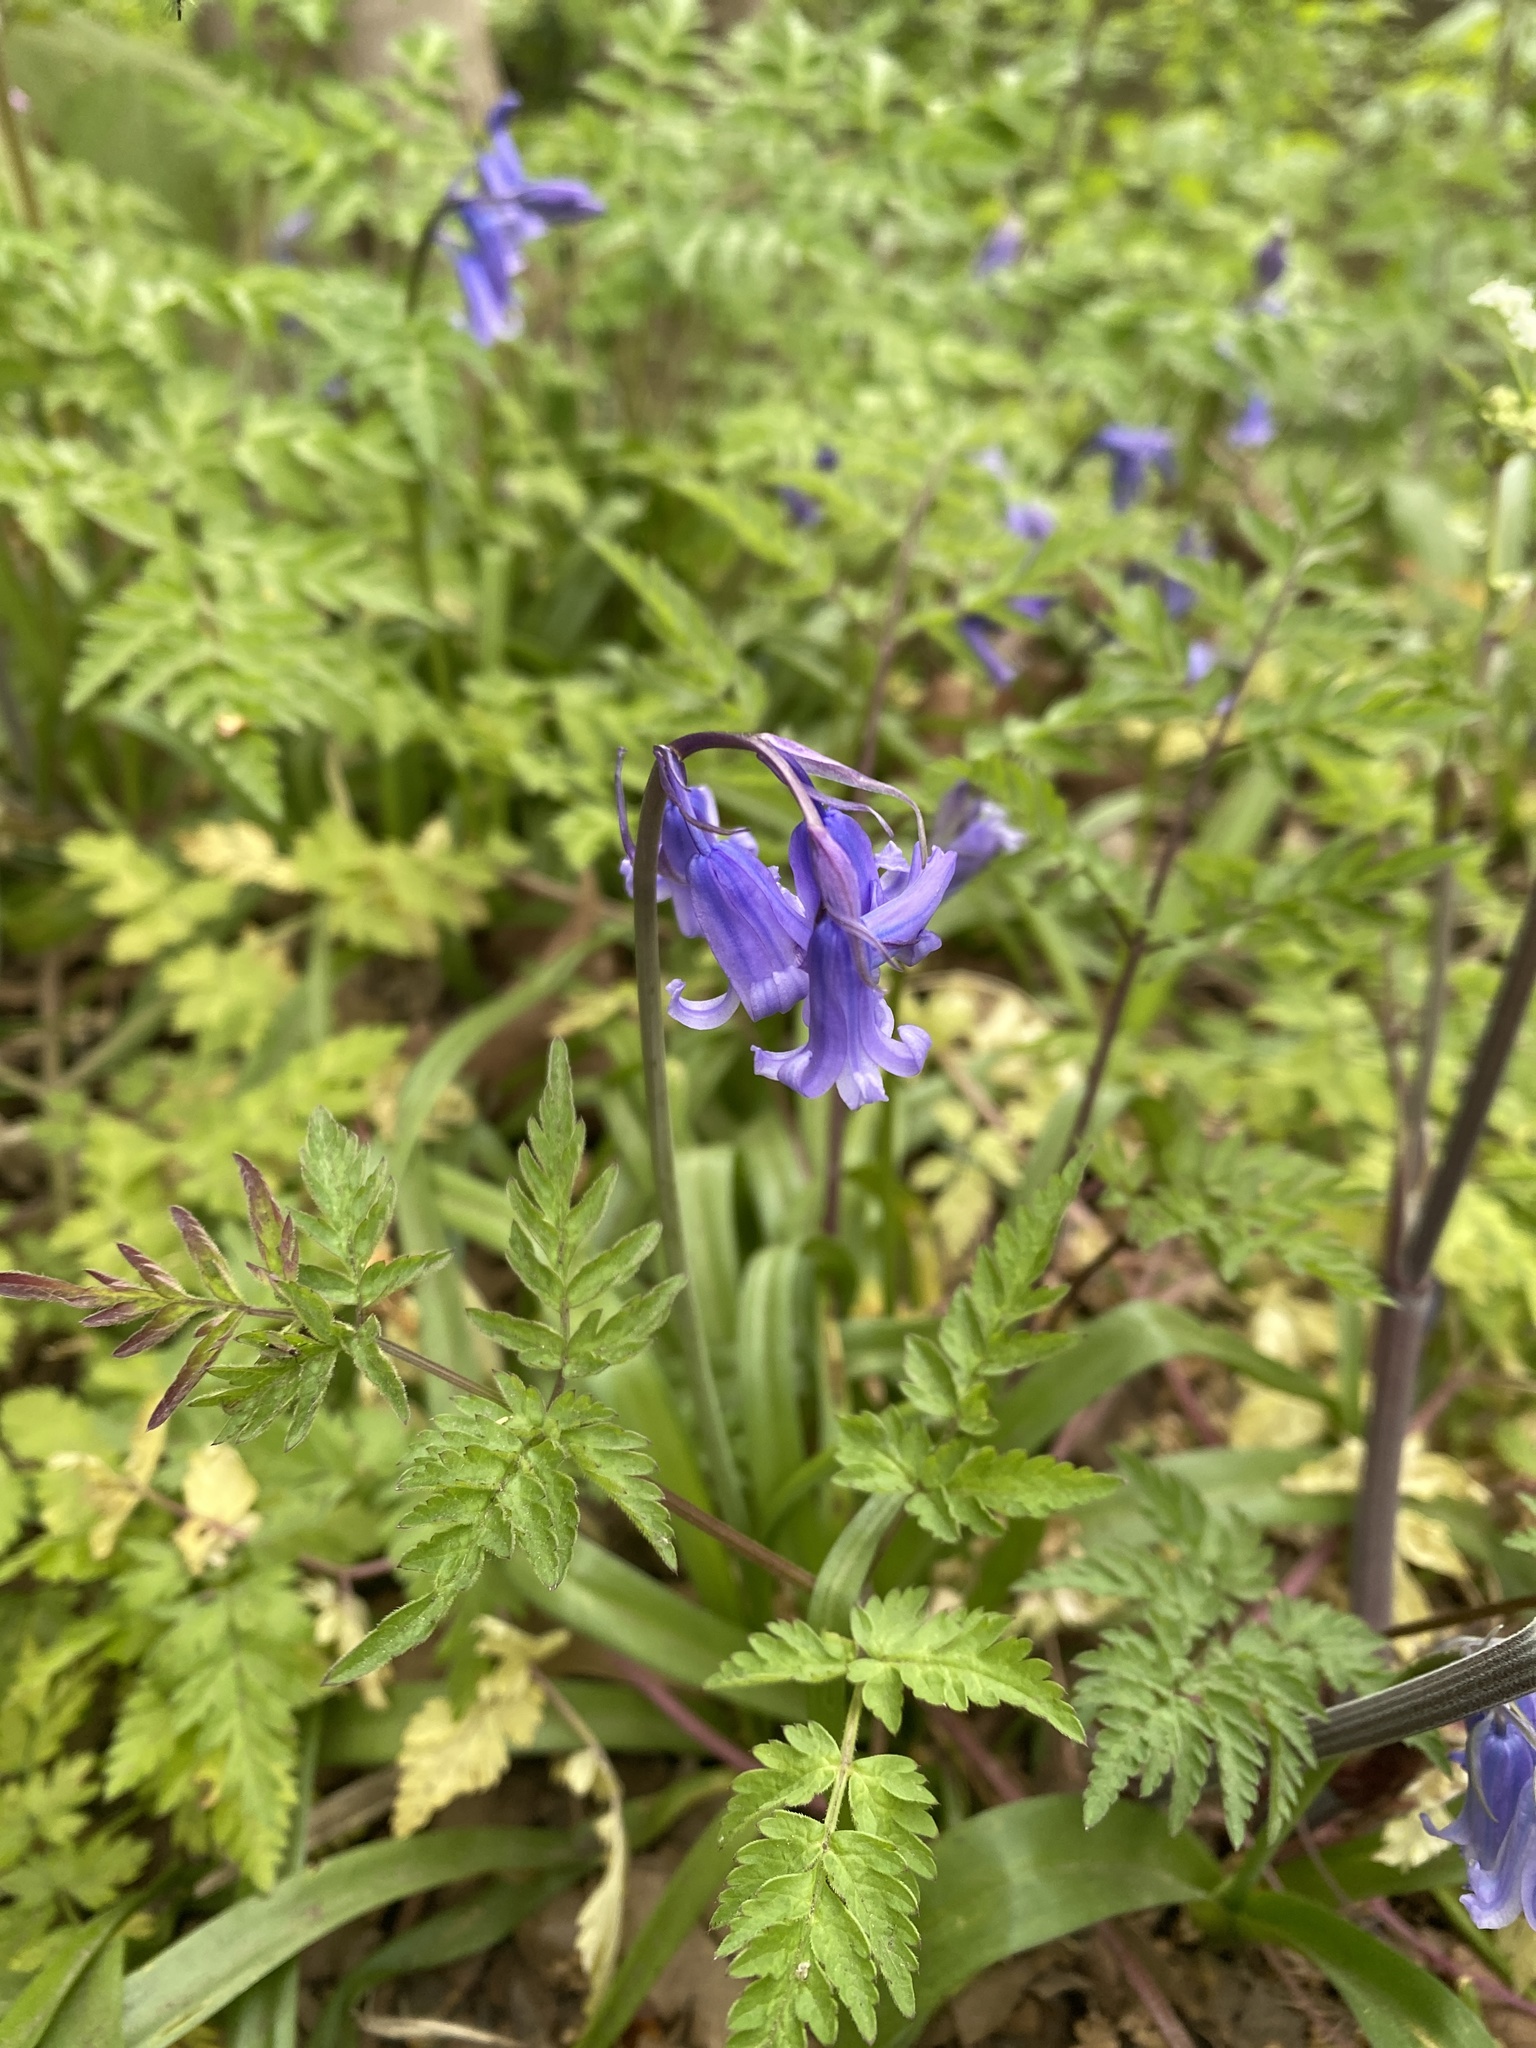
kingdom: Plantae
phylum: Tracheophyta
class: Liliopsida
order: Asparagales
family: Asparagaceae
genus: Hyacinthoides
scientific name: Hyacinthoides non-scripta
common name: Bluebell
